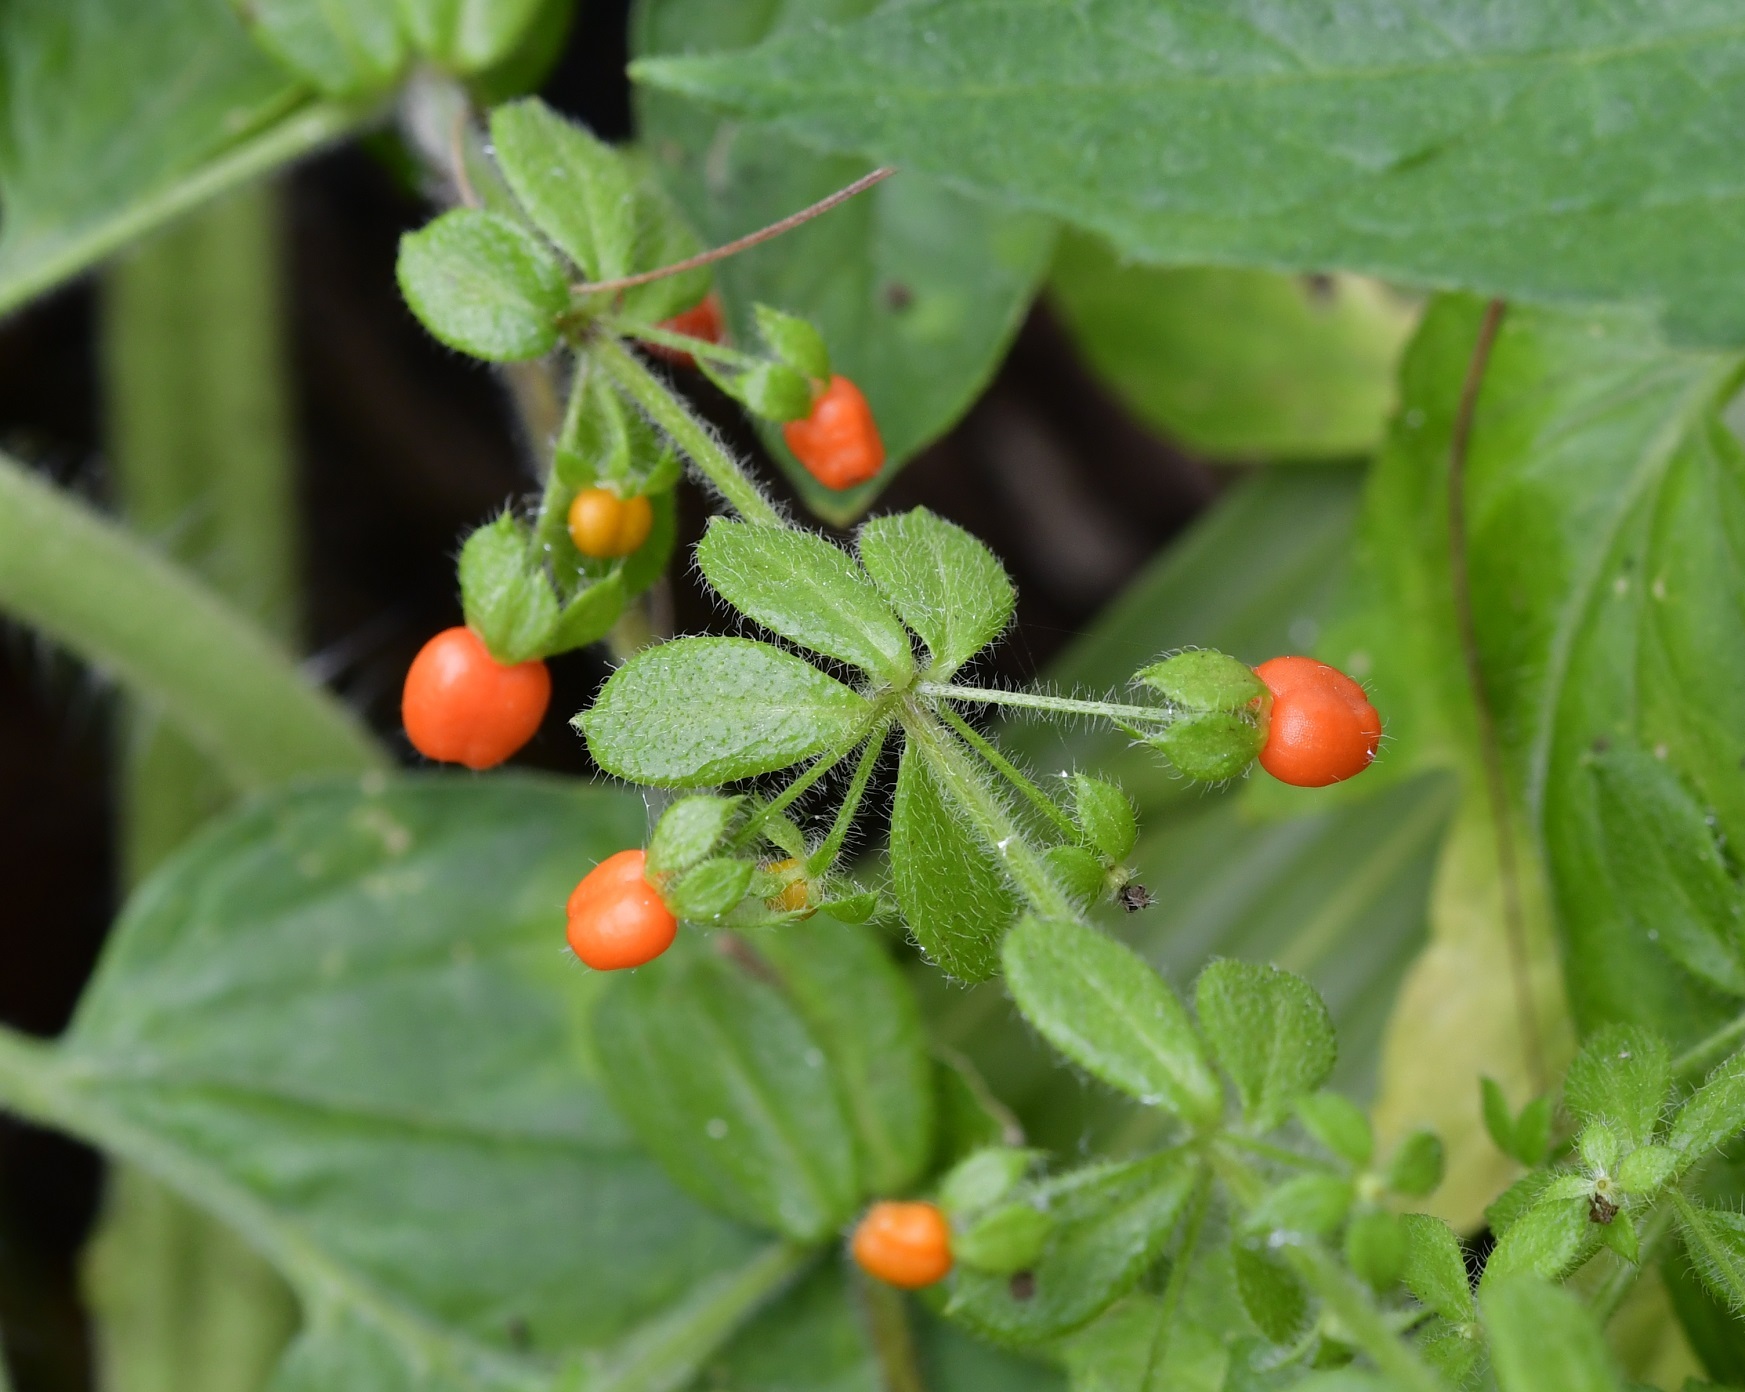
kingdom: Plantae
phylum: Tracheophyta
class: Magnoliopsida
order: Gentianales
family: Rubiaceae
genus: Galium
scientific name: Galium hypocarpium
